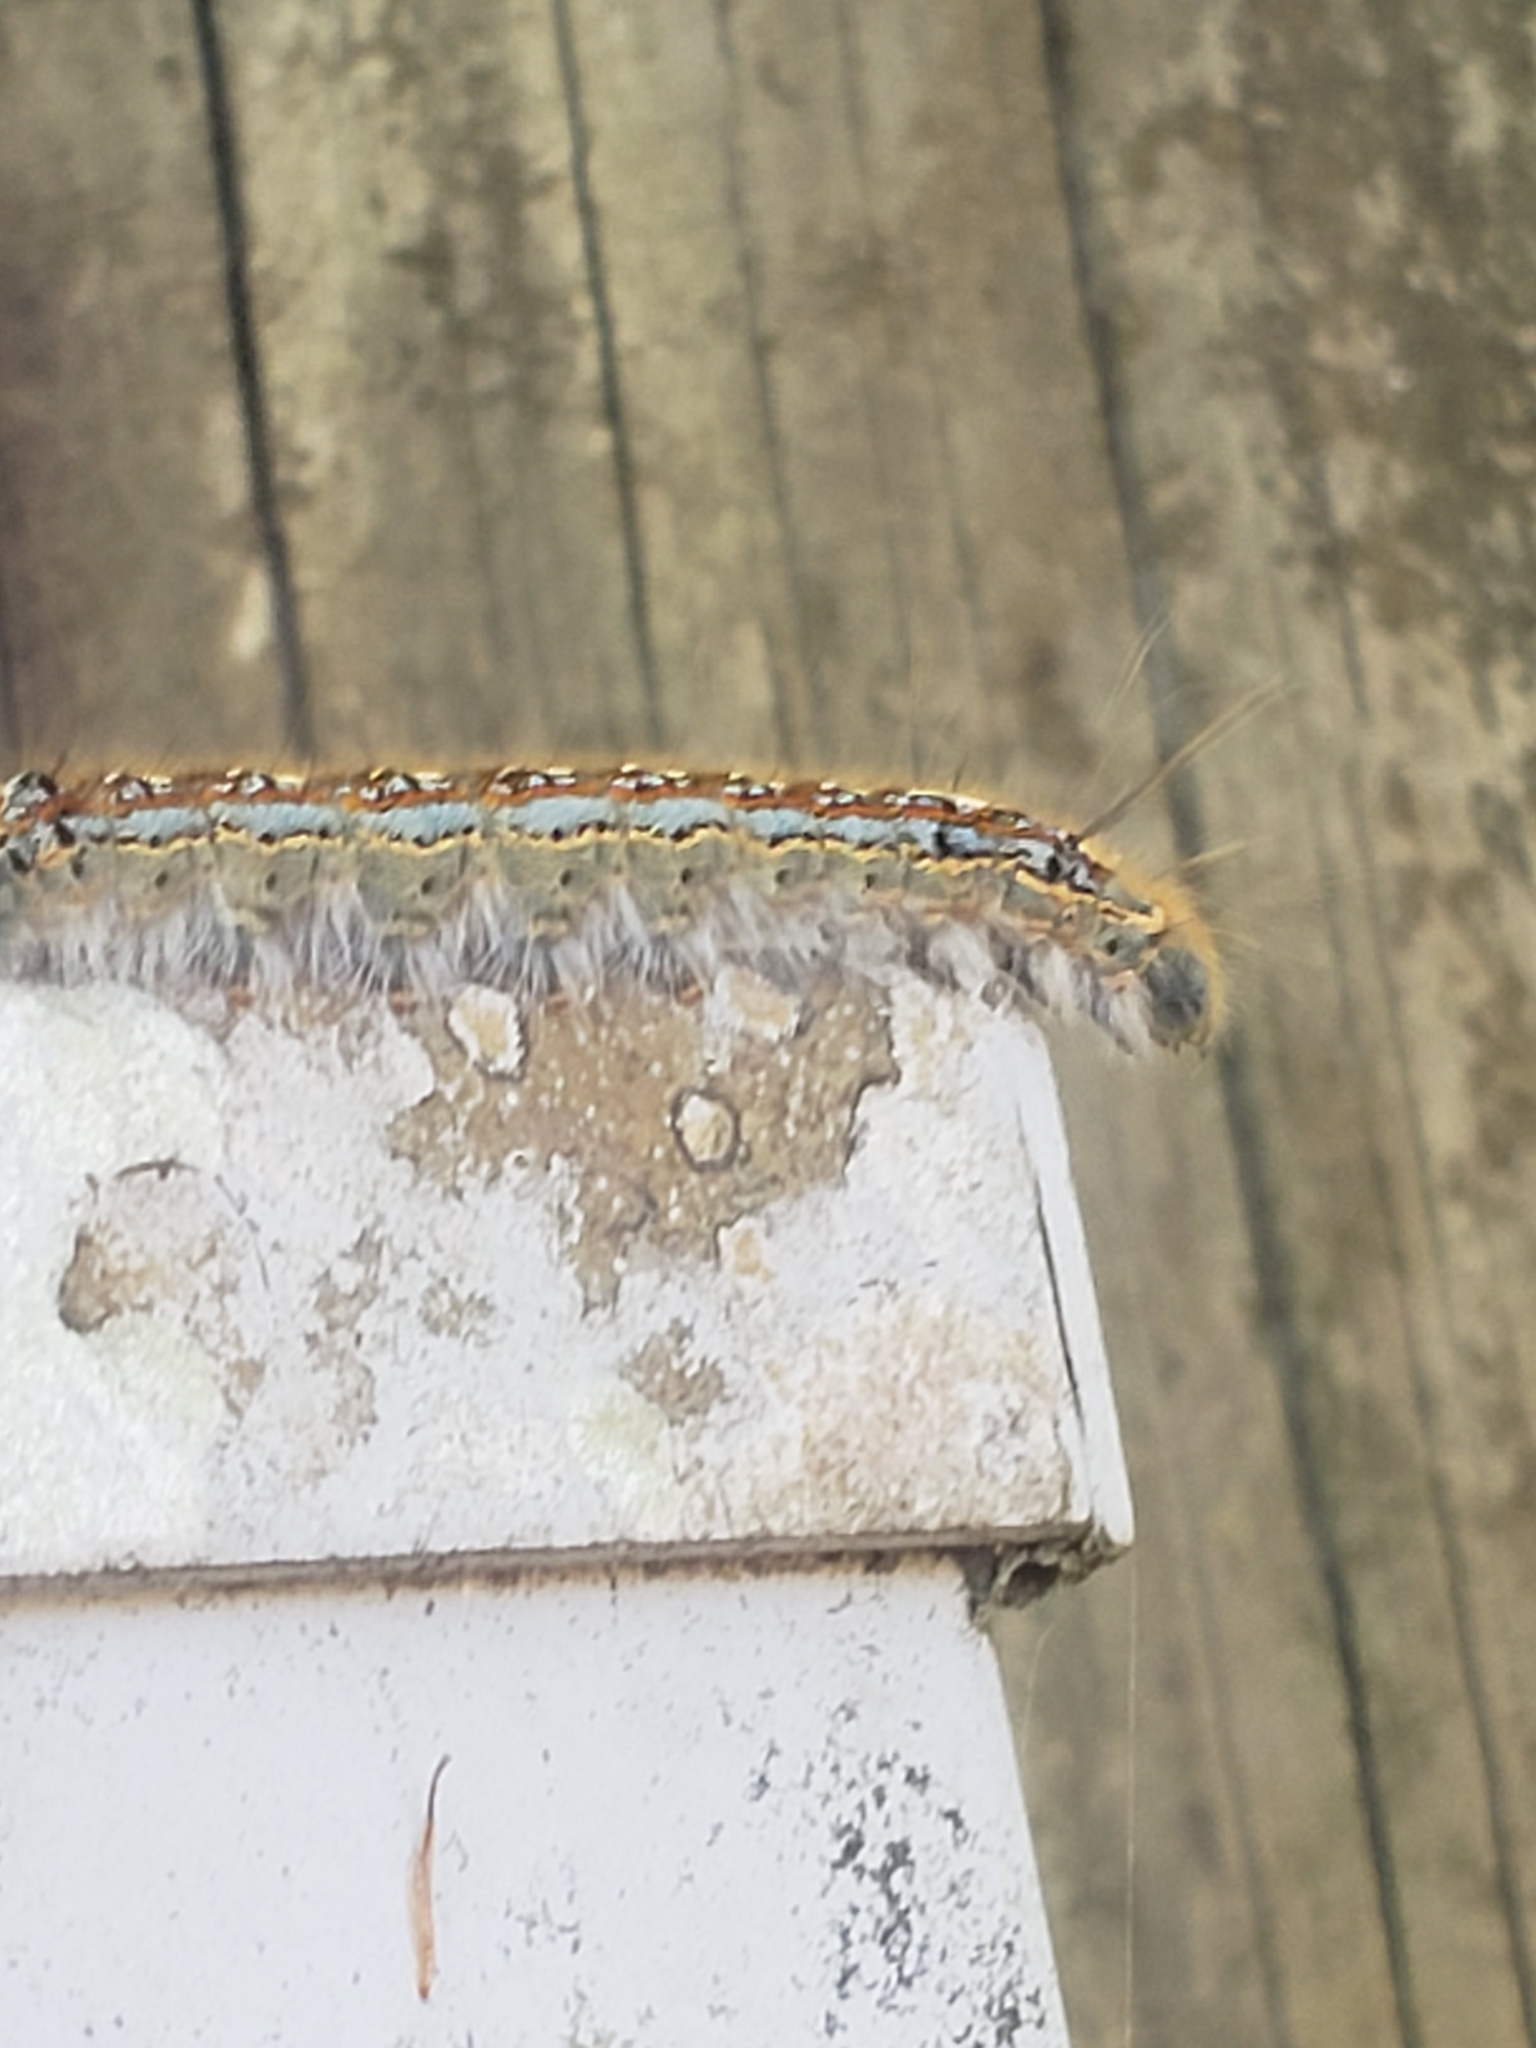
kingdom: Animalia
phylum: Arthropoda
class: Insecta
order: Lepidoptera
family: Lasiocampidae
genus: Malacosoma
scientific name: Malacosoma disstria
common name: Forest tent caterpillar
